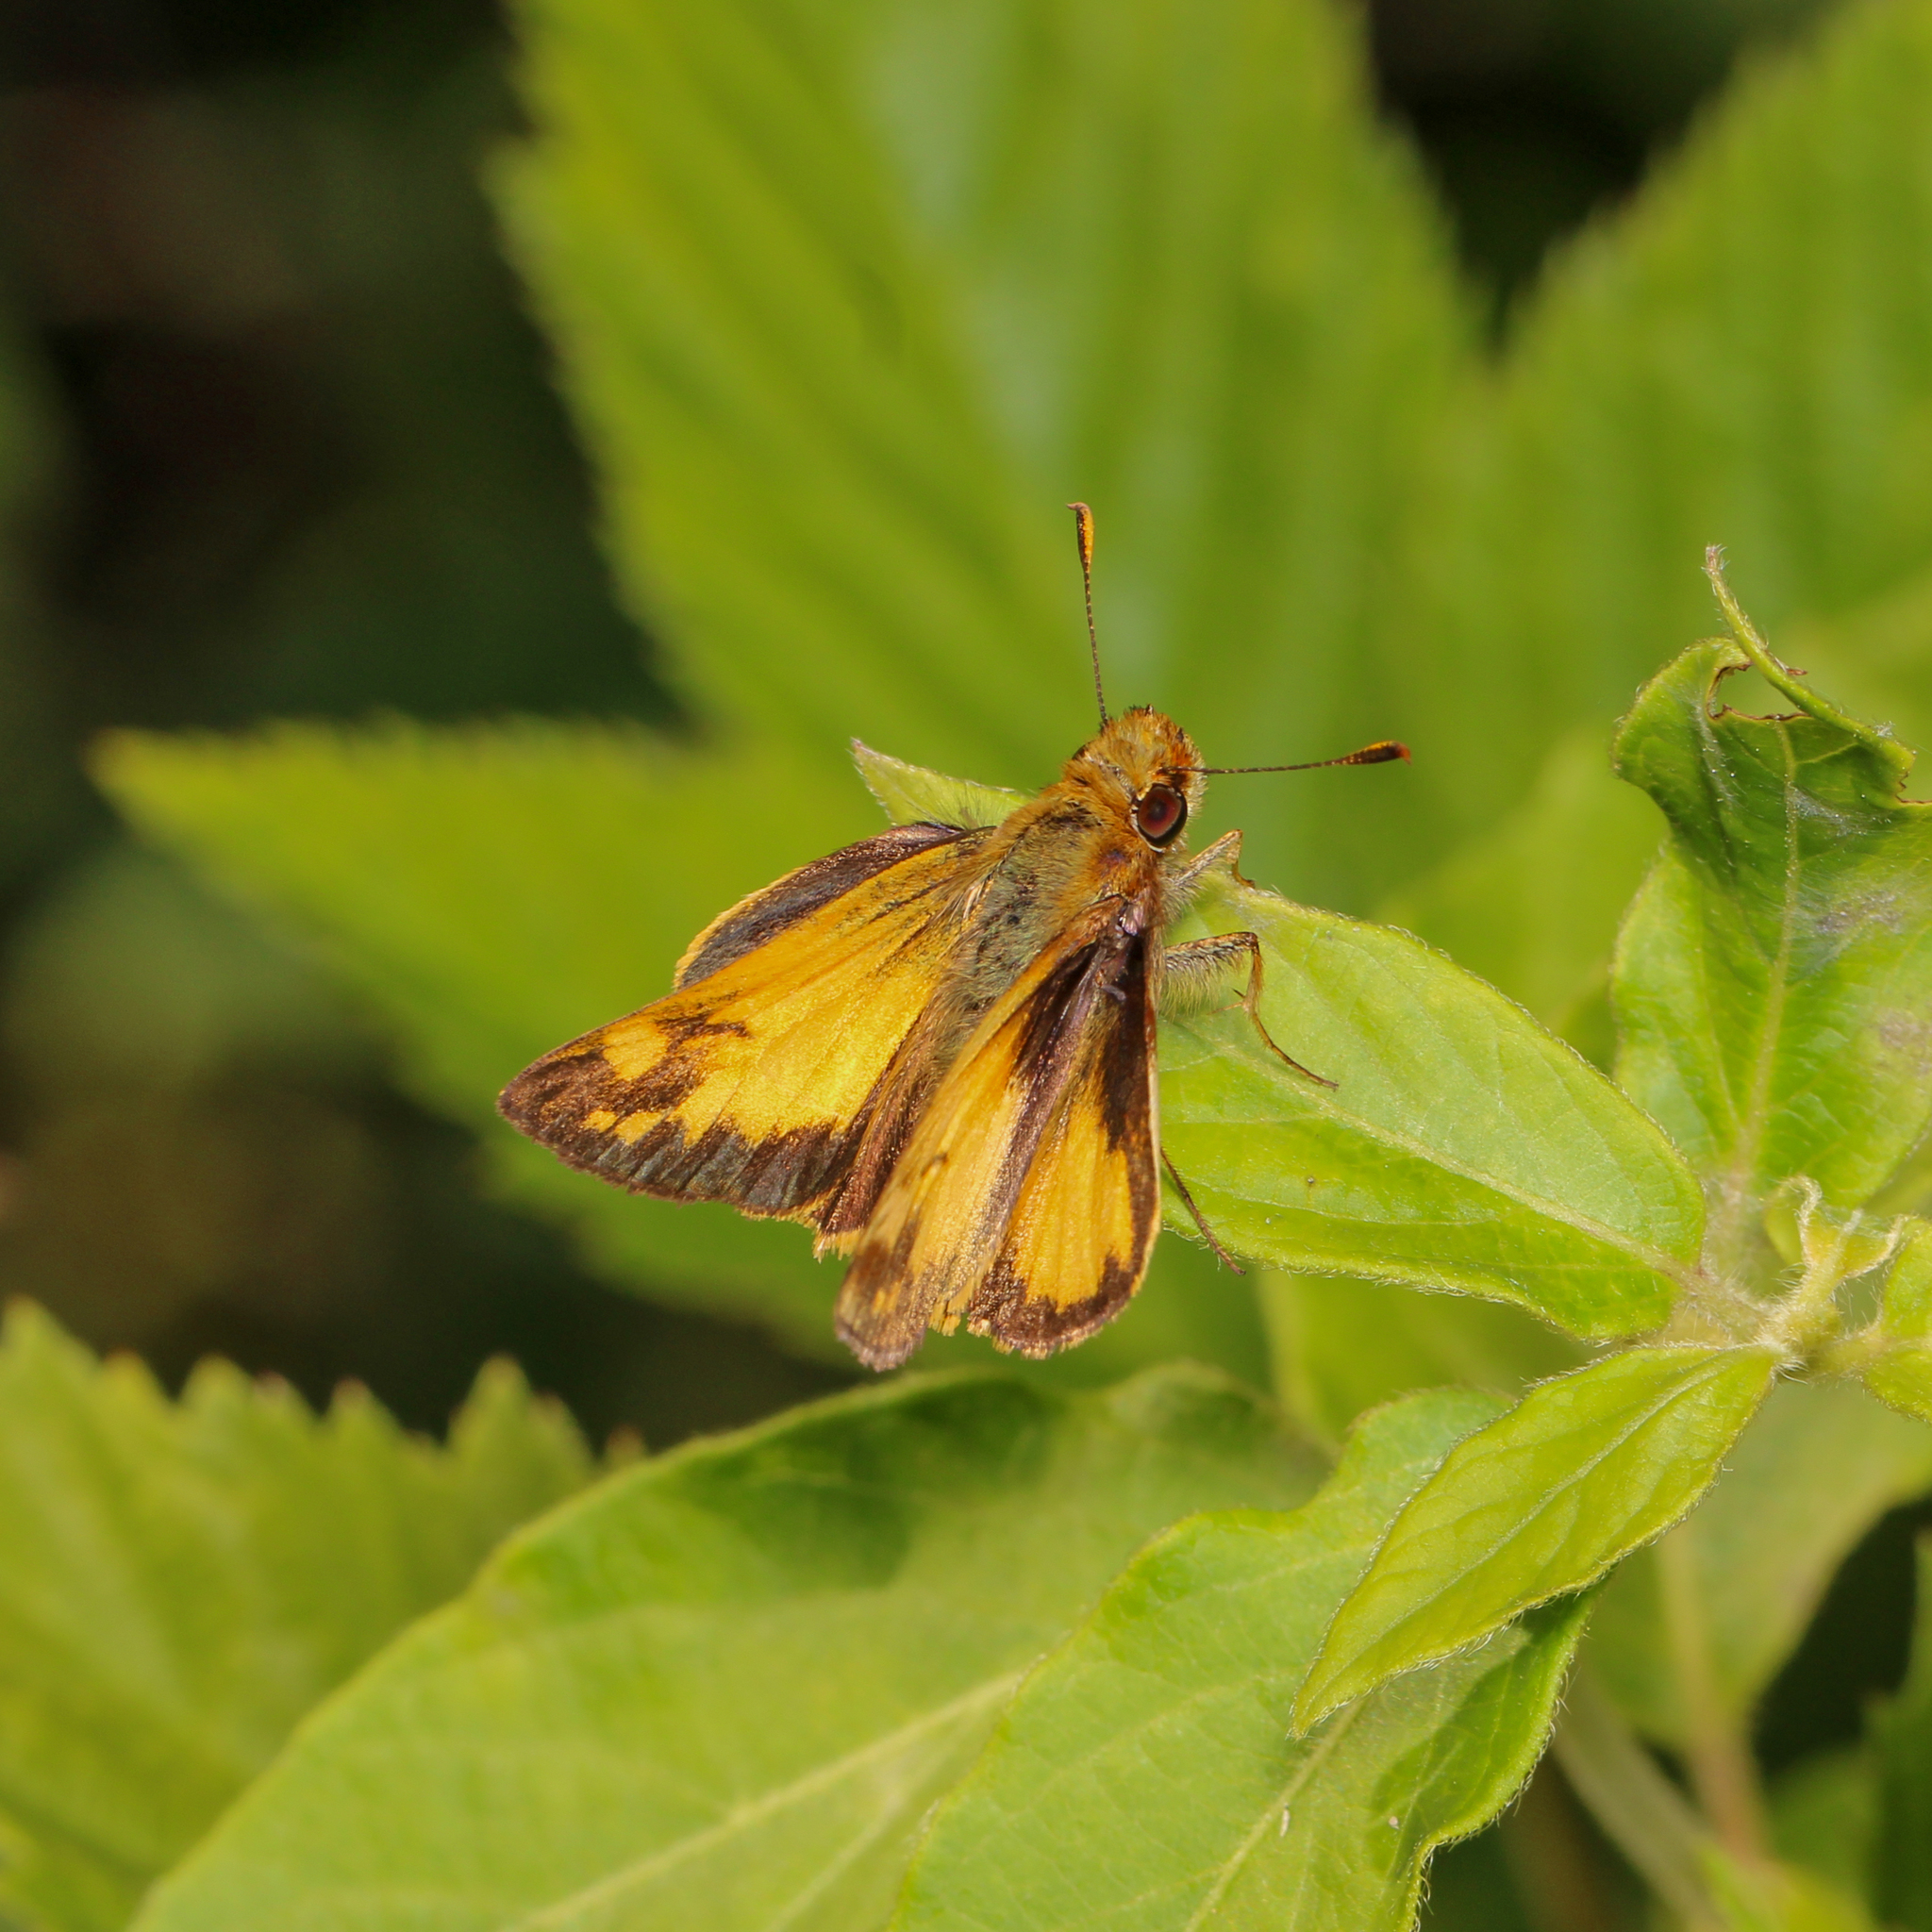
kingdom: Animalia
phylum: Arthropoda
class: Insecta
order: Lepidoptera
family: Hesperiidae
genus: Lon
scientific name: Lon zabulon
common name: Zabulon skipper
